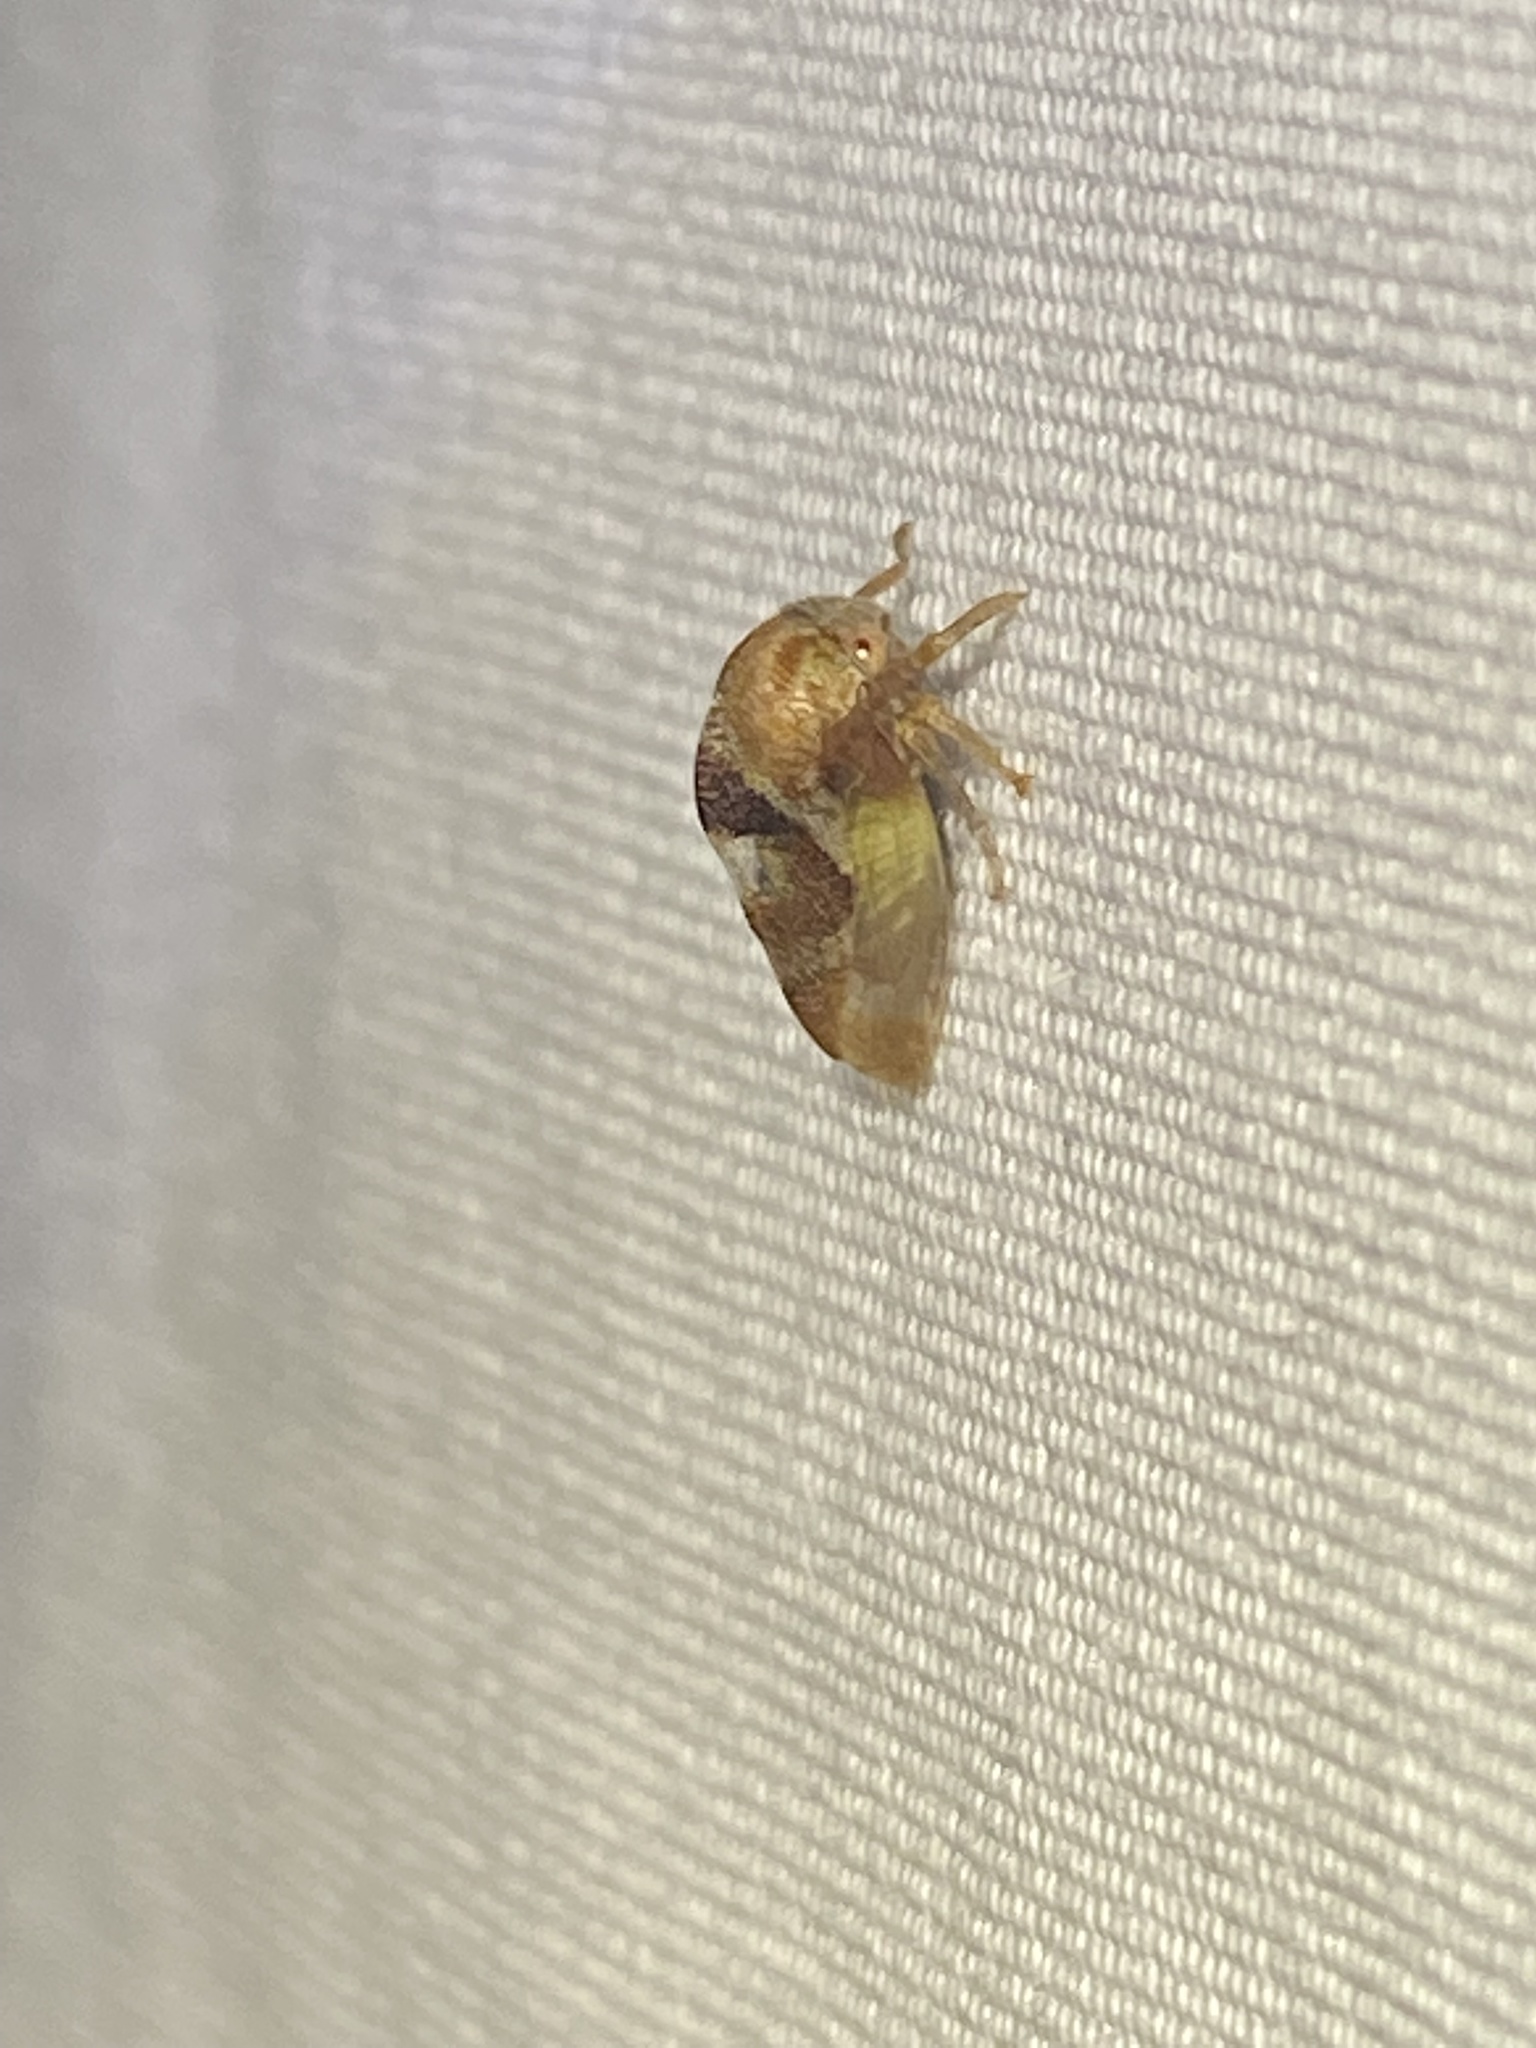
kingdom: Animalia
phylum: Arthropoda
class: Insecta
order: Hemiptera
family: Membracidae
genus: Cyrtolobus
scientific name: Cyrtolobus vau
